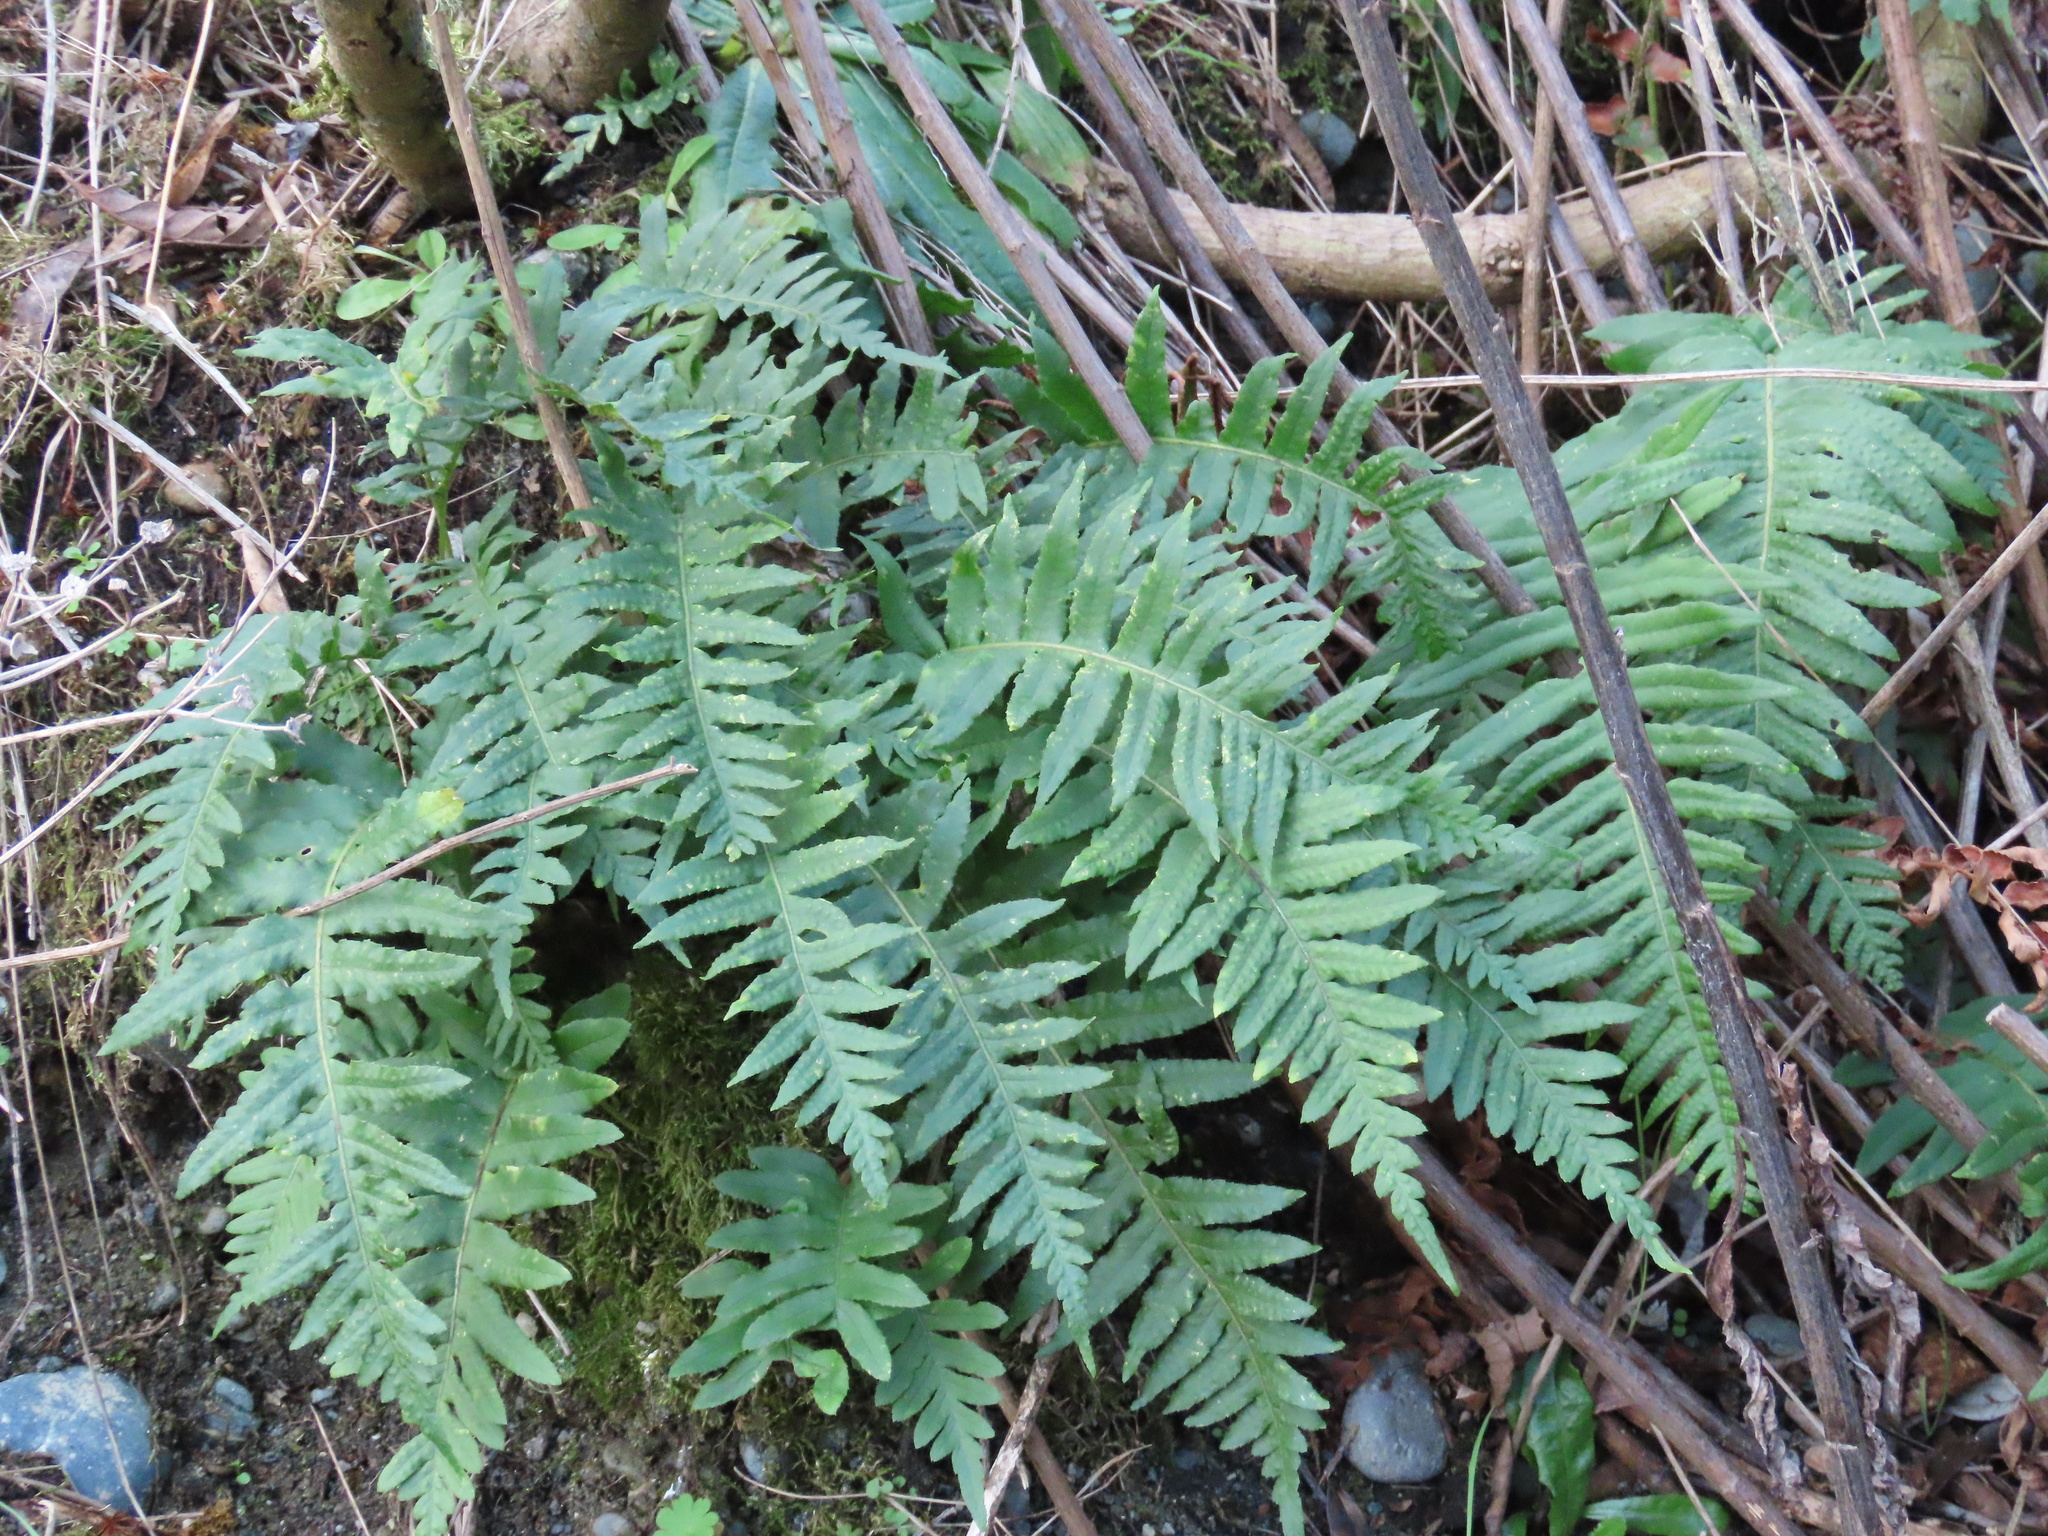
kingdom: Plantae
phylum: Tracheophyta
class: Polypodiopsida
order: Polypodiales
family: Polypodiaceae
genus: Polypodium
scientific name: Polypodium glycyrrhiza
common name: Licorice fern
